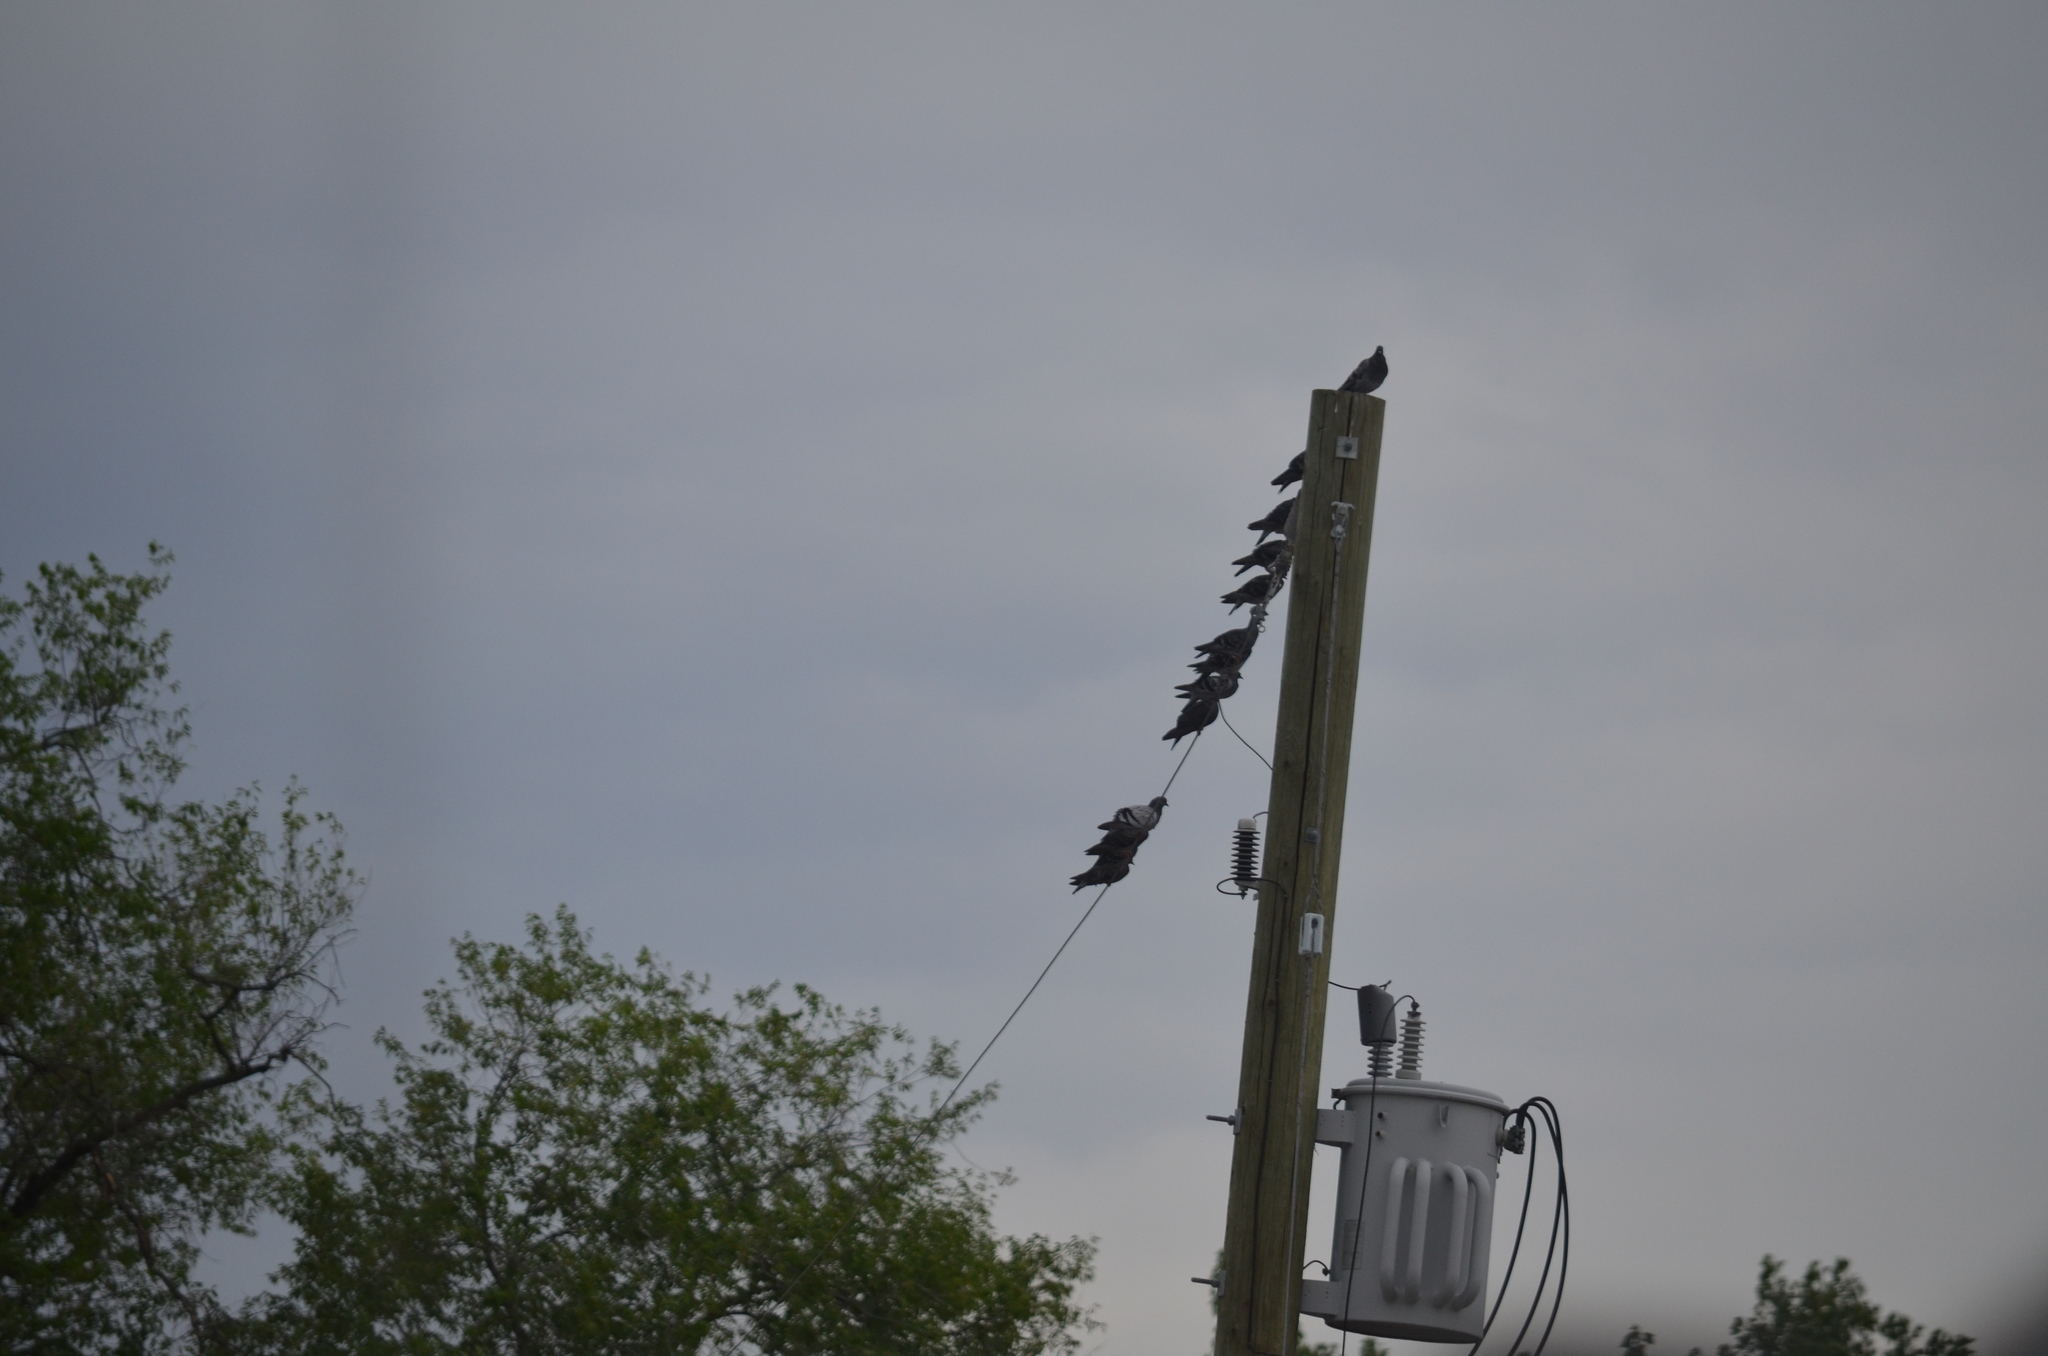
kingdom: Animalia
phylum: Chordata
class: Aves
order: Columbiformes
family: Columbidae
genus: Columba
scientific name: Columba livia
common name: Rock pigeon
